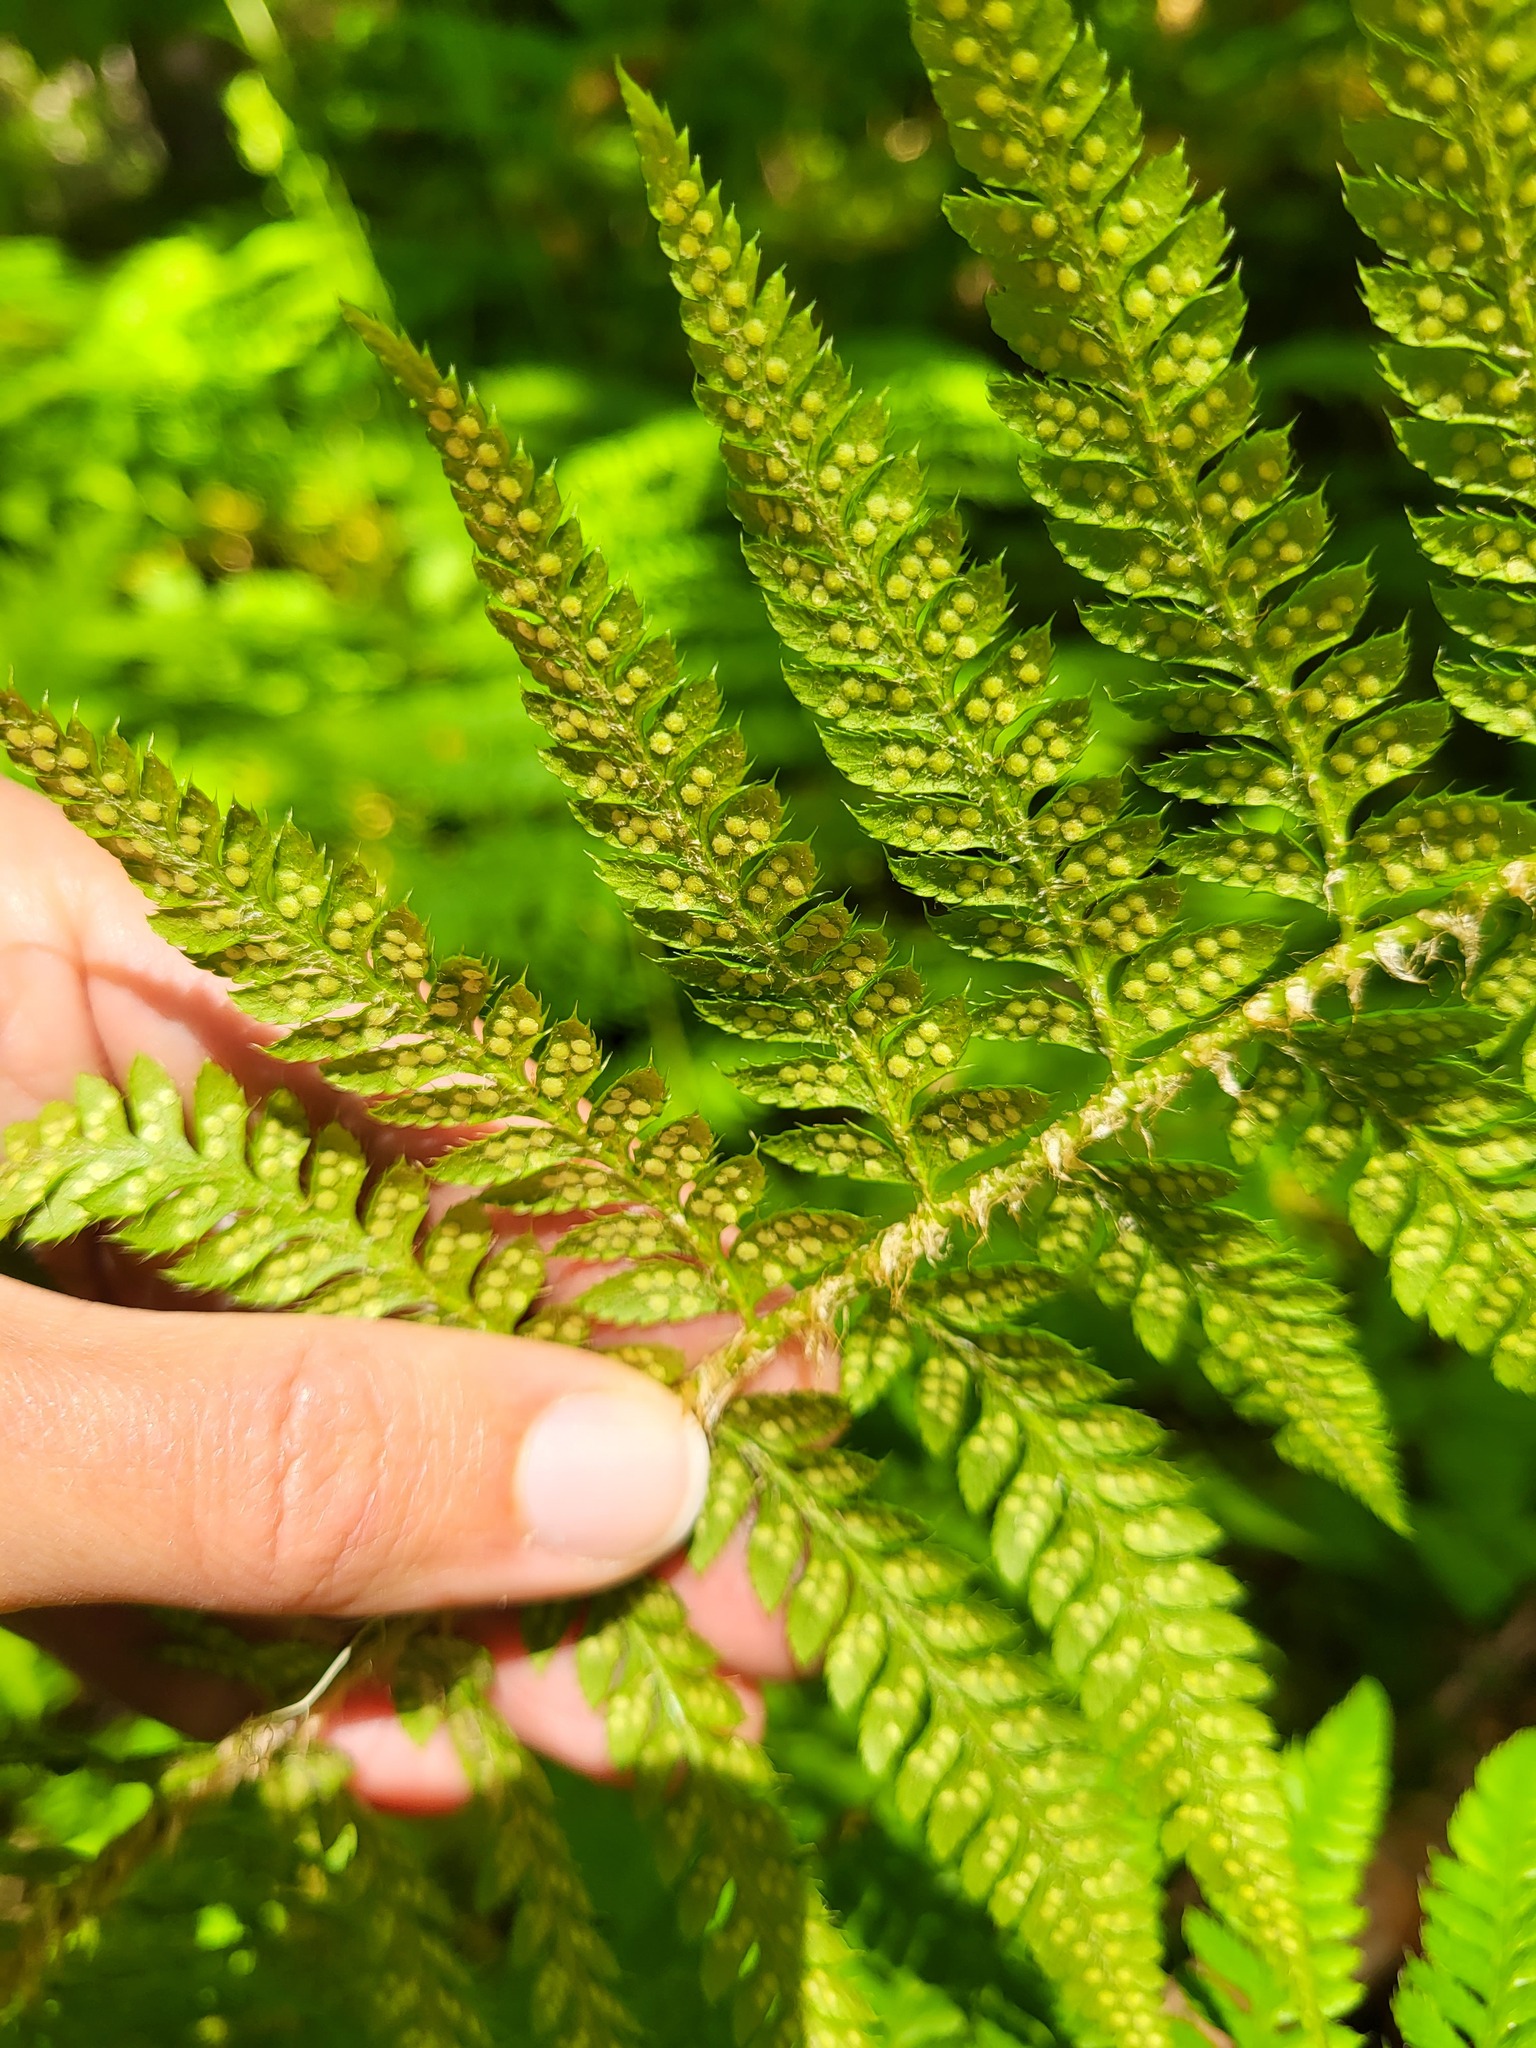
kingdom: Plantae
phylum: Tracheophyta
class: Polypodiopsida
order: Polypodiales
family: Dryopteridaceae
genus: Polystichum
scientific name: Polystichum andersonii
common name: Anderson's holly fern
